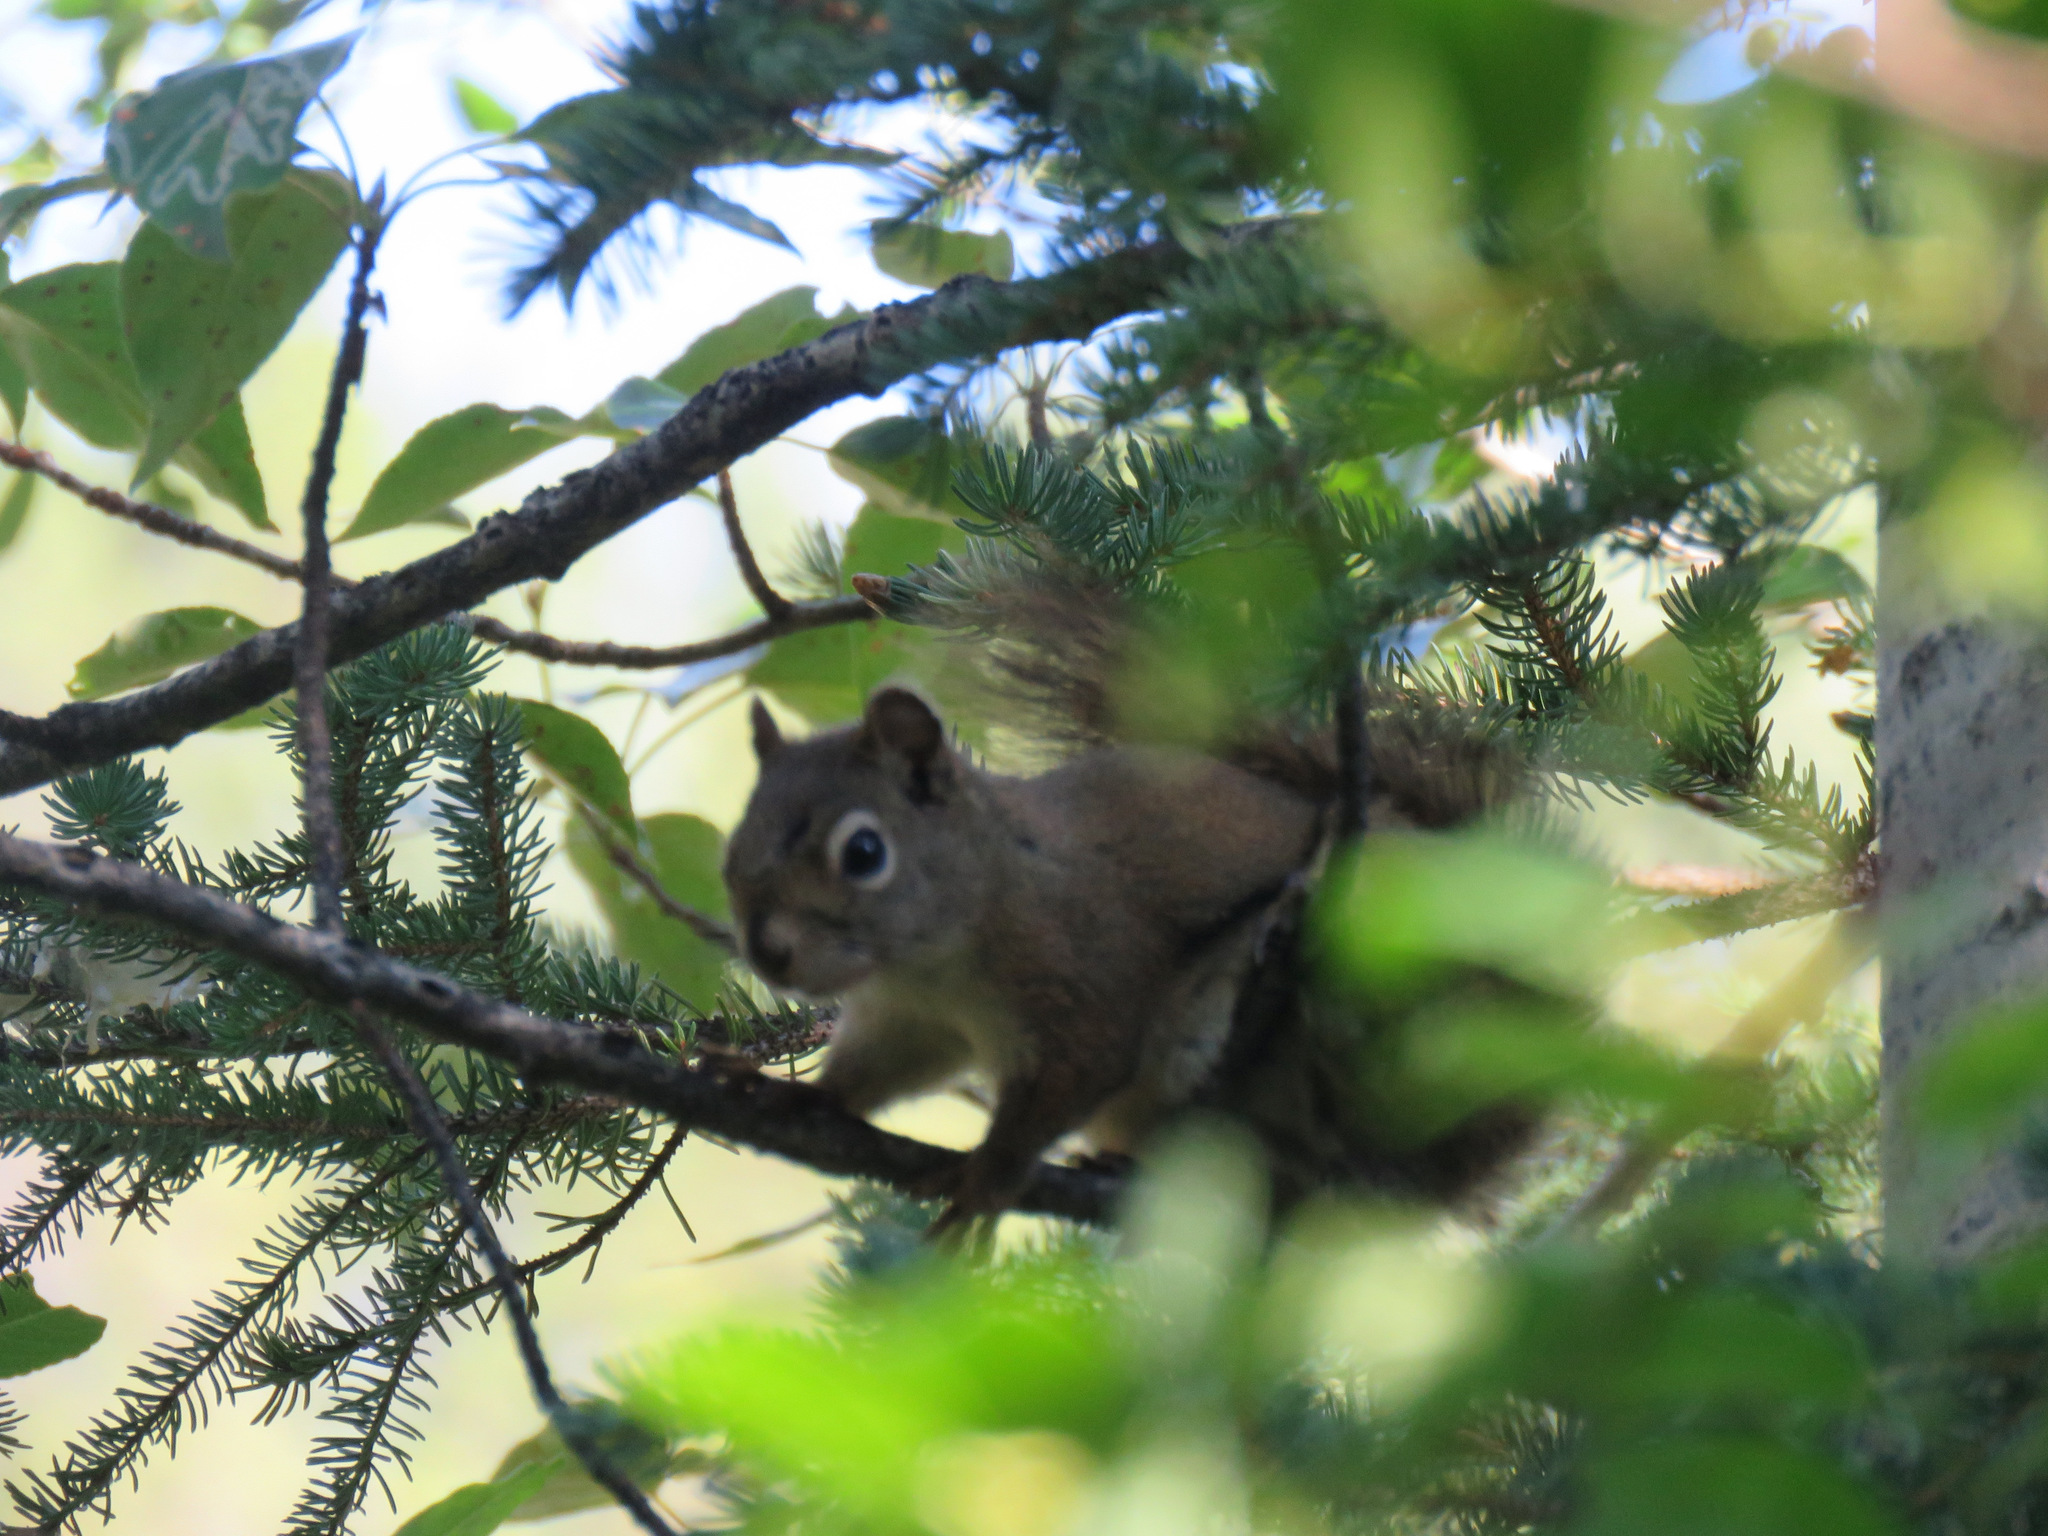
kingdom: Animalia
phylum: Chordata
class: Mammalia
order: Rodentia
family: Sciuridae
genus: Tamiasciurus
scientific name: Tamiasciurus hudsonicus
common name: Red squirrel
